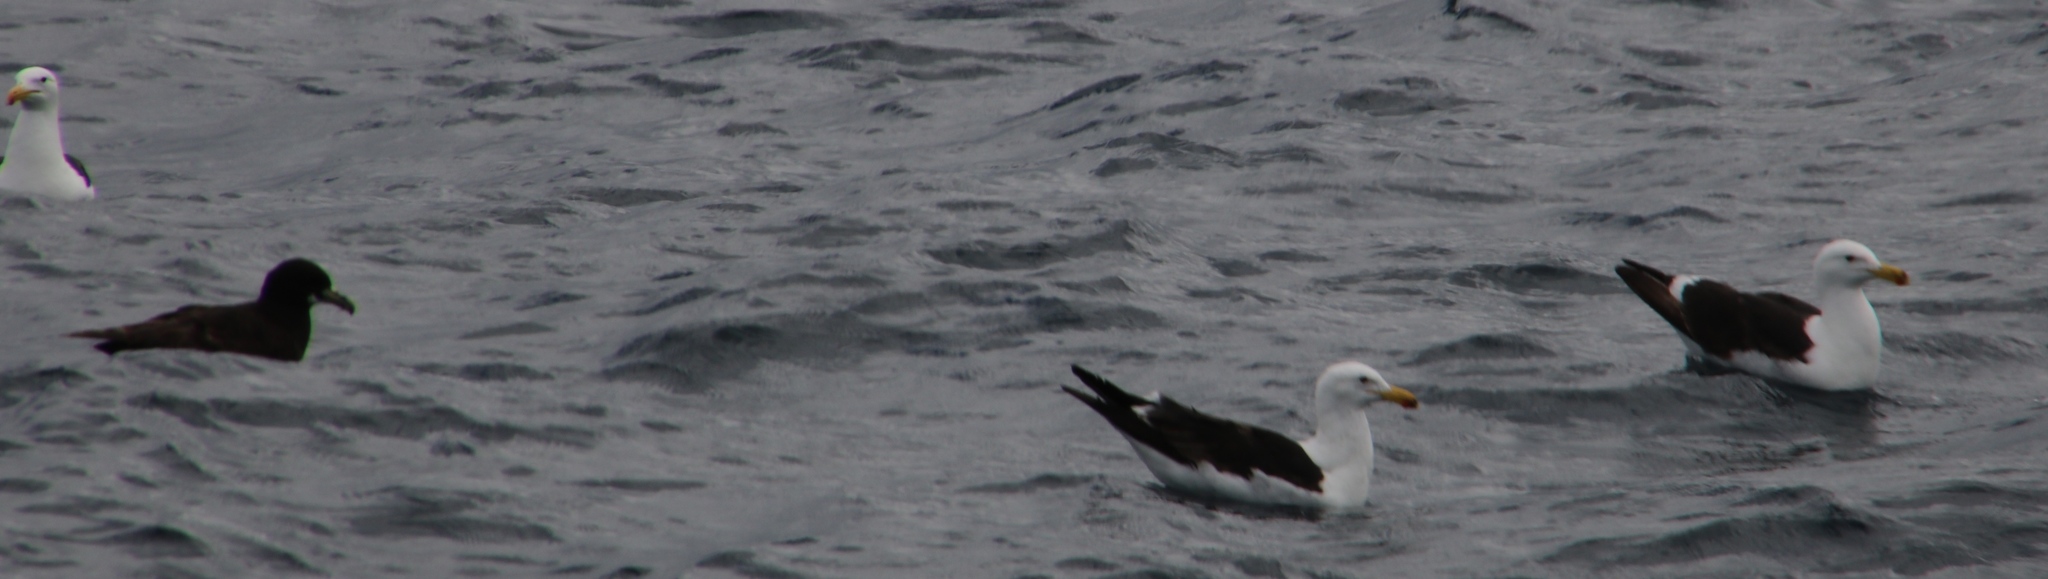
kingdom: Animalia
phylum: Chordata
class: Aves
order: Charadriiformes
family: Laridae
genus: Larus
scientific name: Larus dominicanus
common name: Kelp gull
